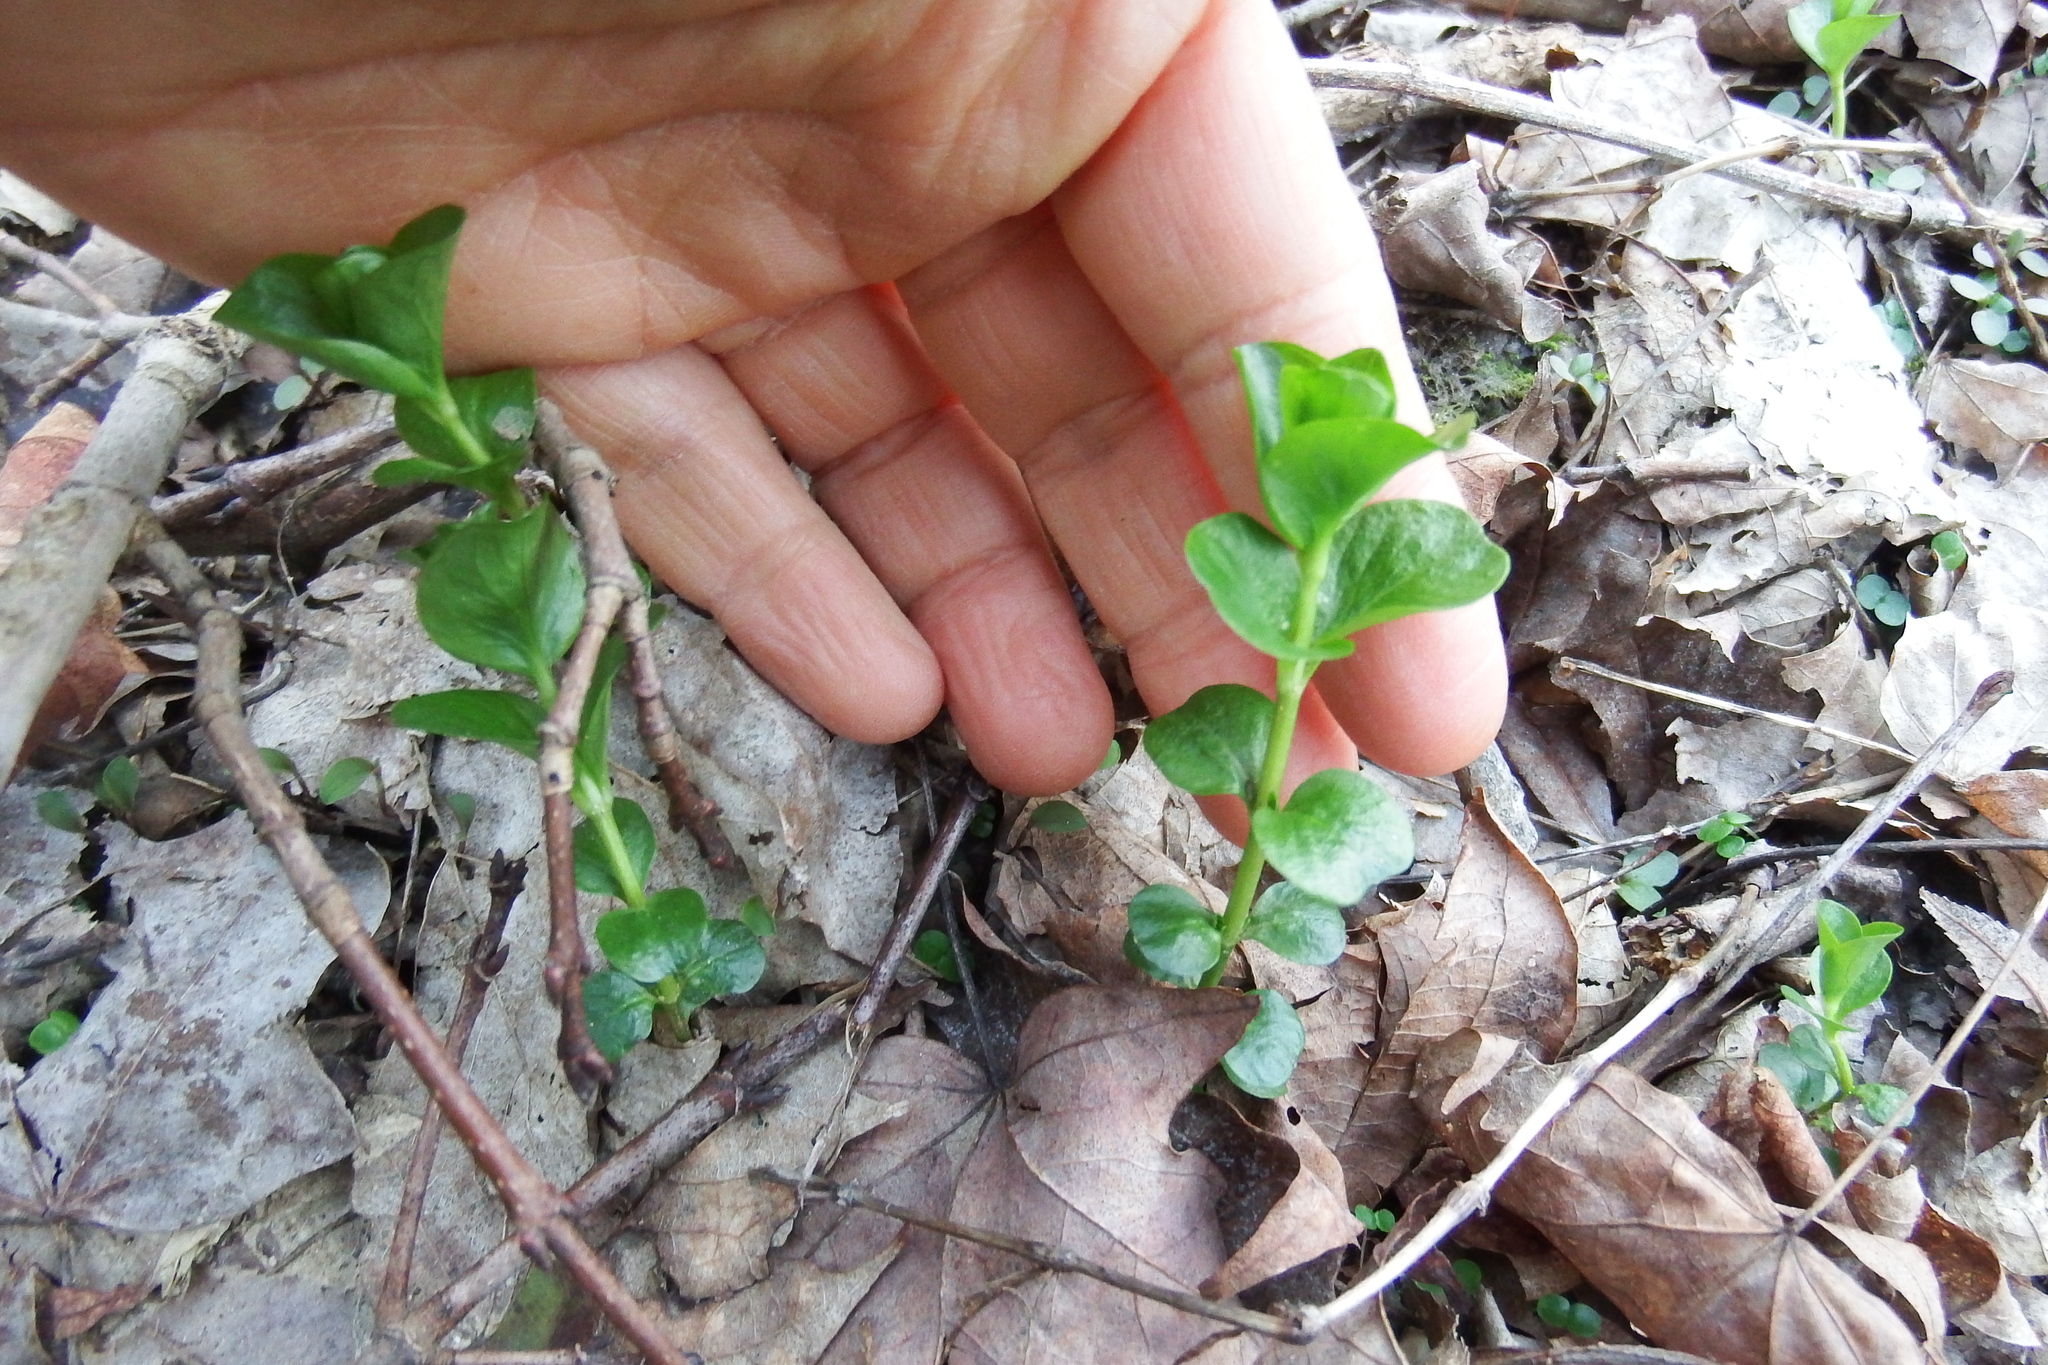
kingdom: Plantae
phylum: Tracheophyta
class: Magnoliopsida
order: Ericales
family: Primulaceae
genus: Lysimachia
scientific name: Lysimachia nummularia
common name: Moneywort
